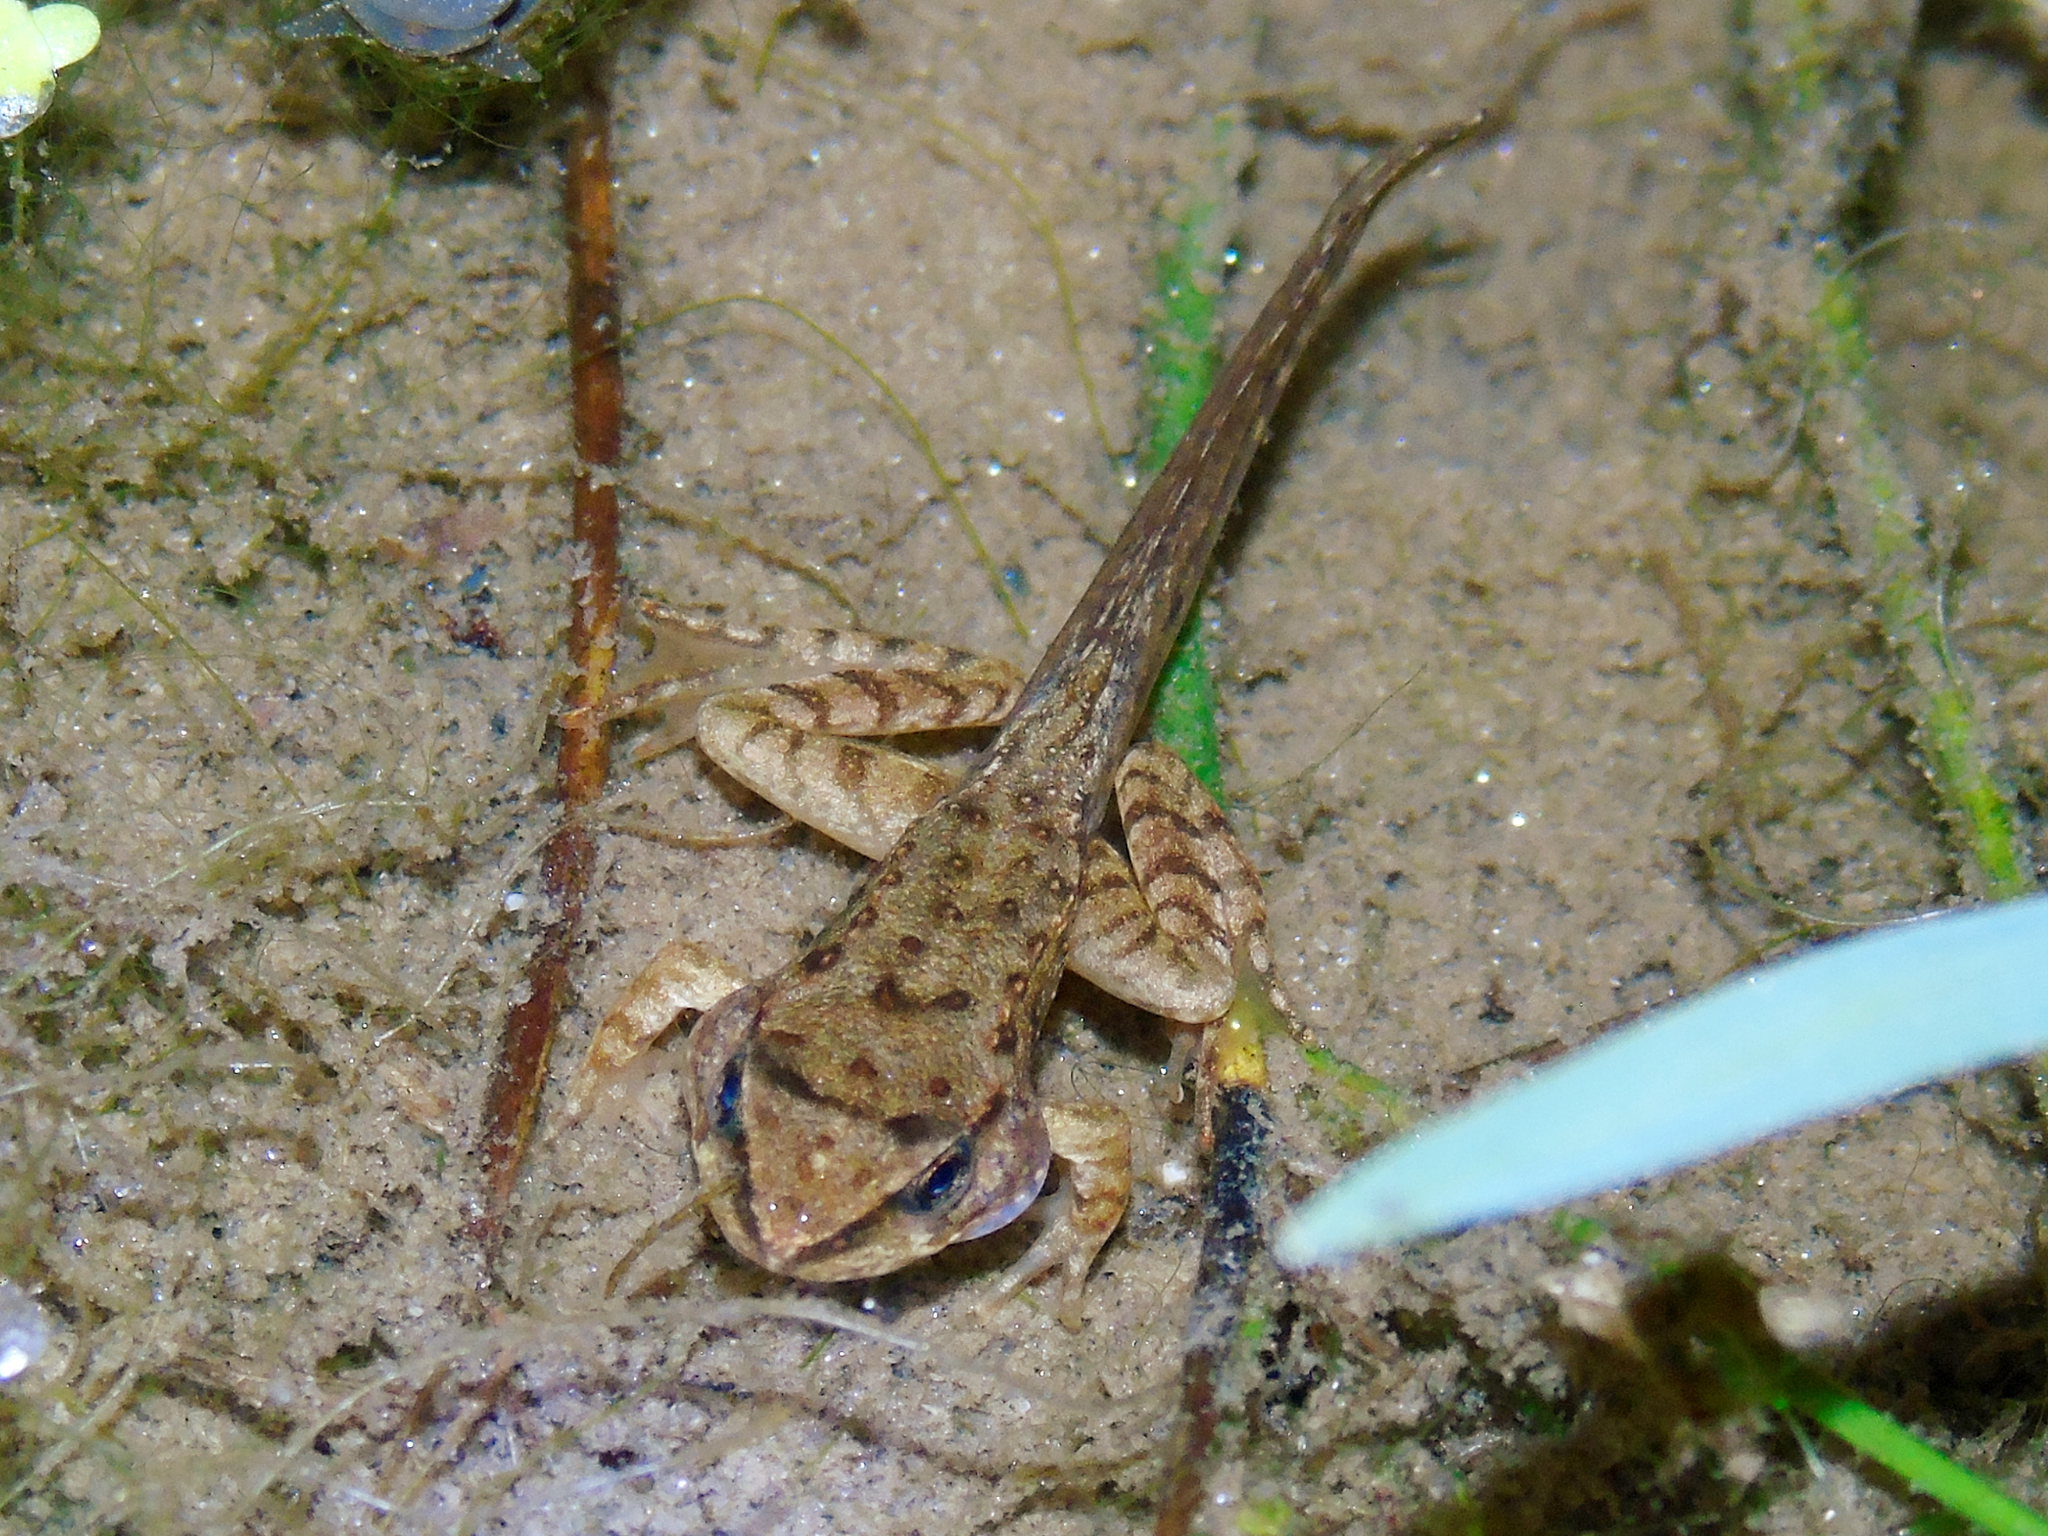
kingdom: Animalia
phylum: Chordata
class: Amphibia
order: Anura
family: Ranidae
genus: Rana
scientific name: Rana temporaria
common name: Common frog
